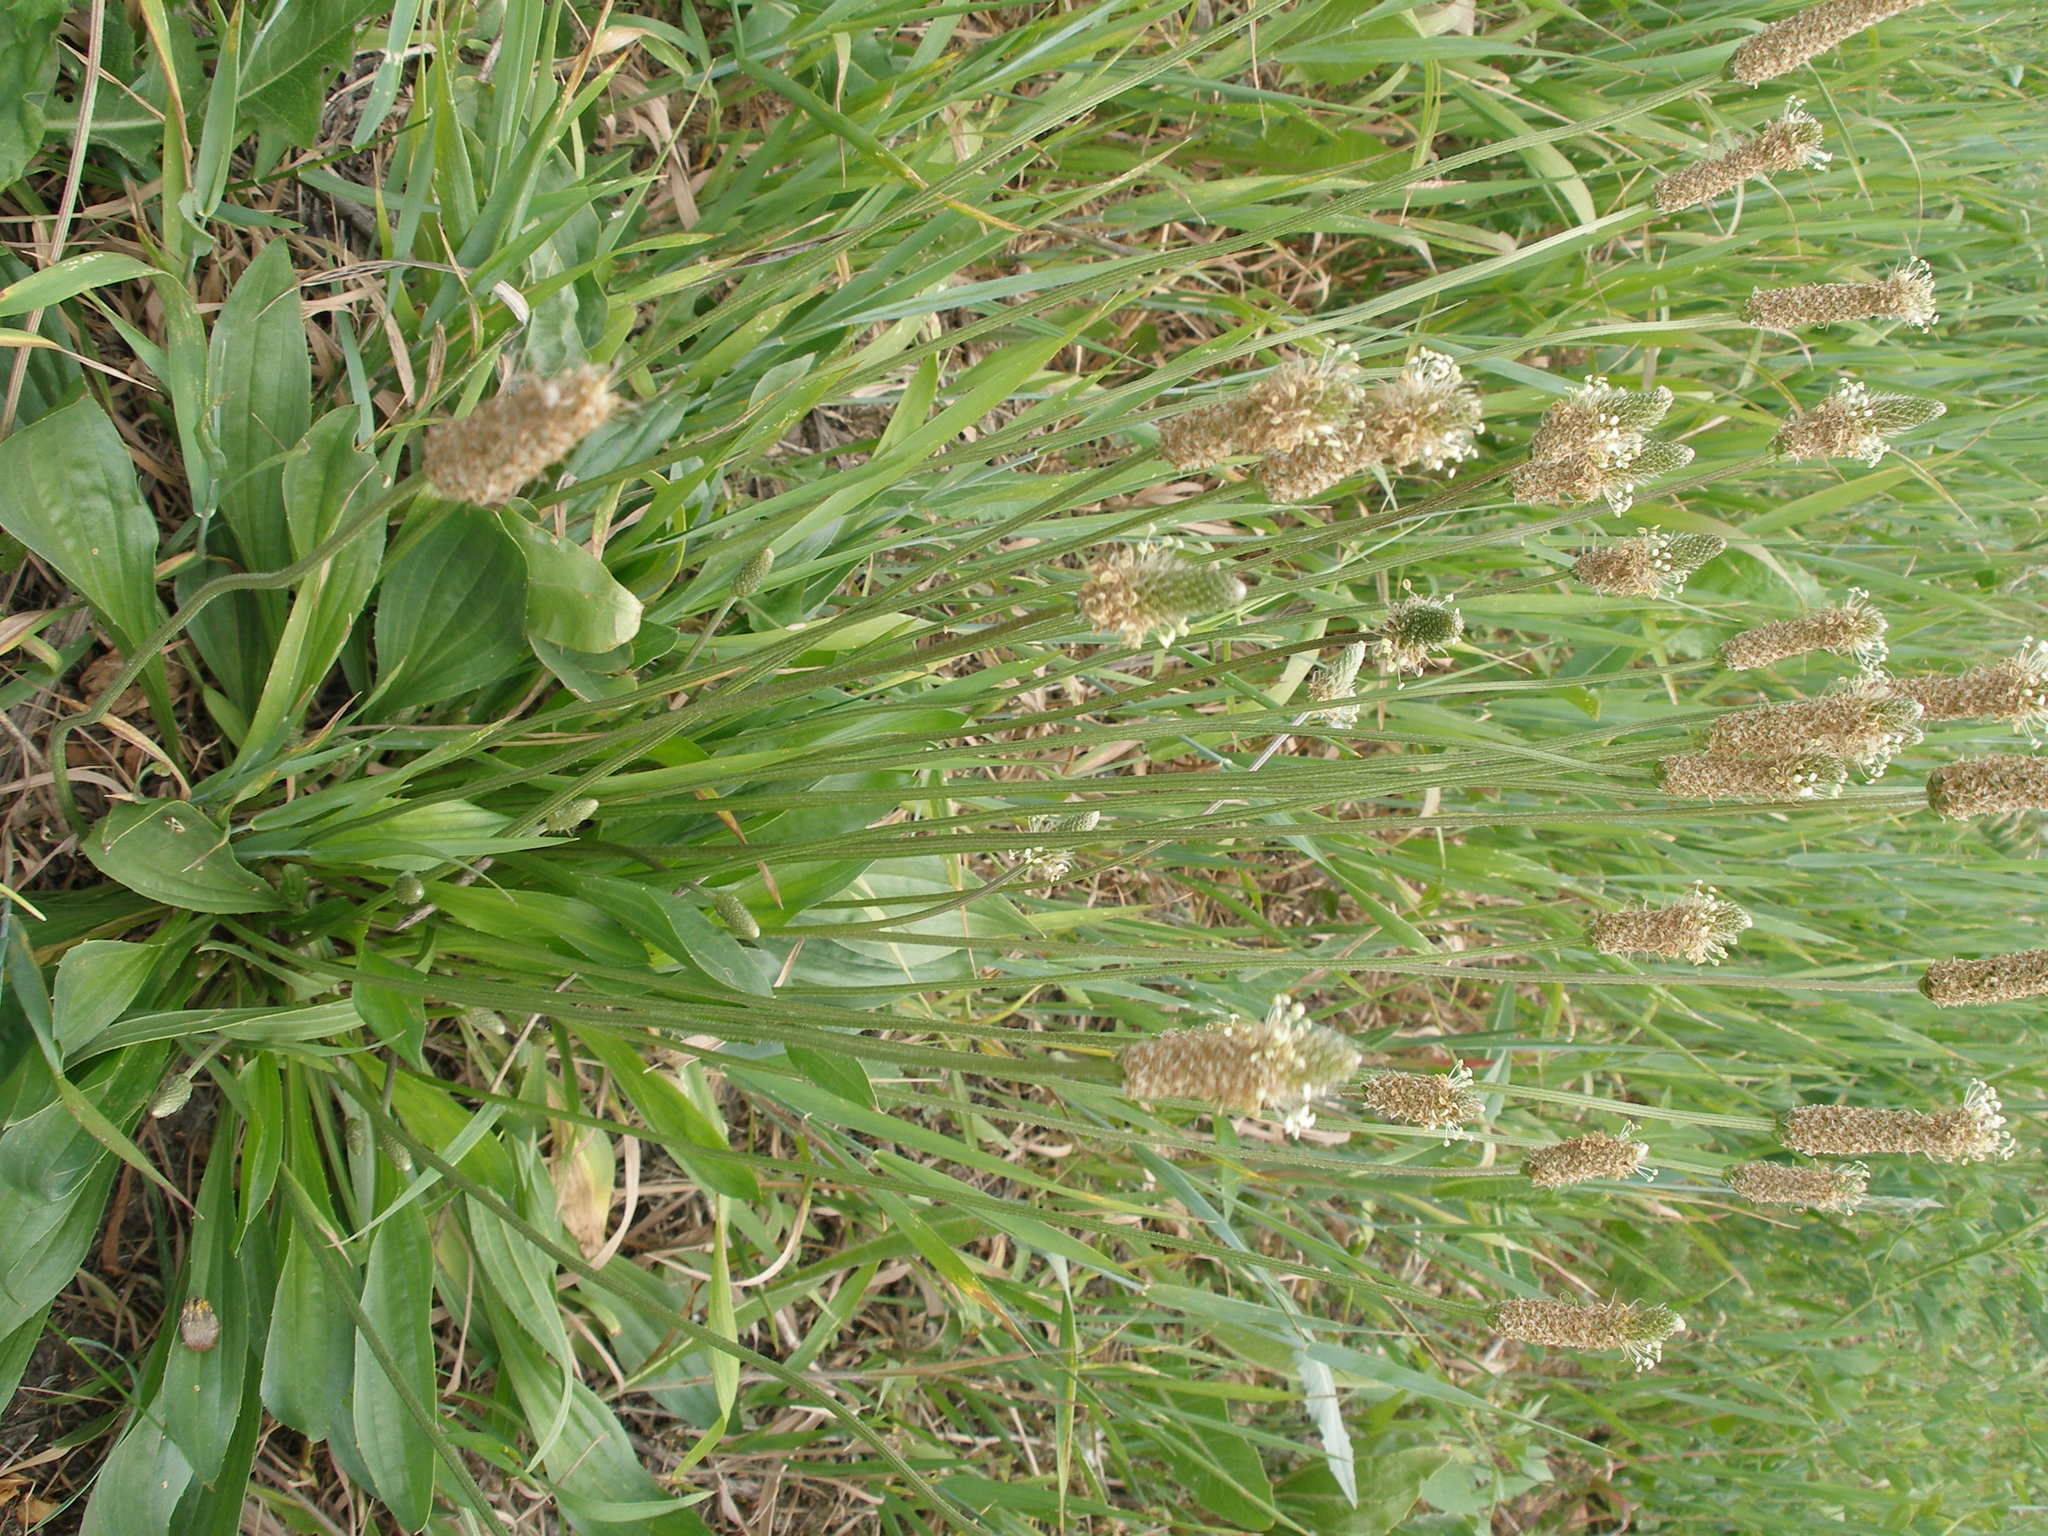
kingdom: Plantae
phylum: Tracheophyta
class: Magnoliopsida
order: Lamiales
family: Plantaginaceae
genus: Plantago
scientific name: Plantago lanceolata
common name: Ribwort plantain
